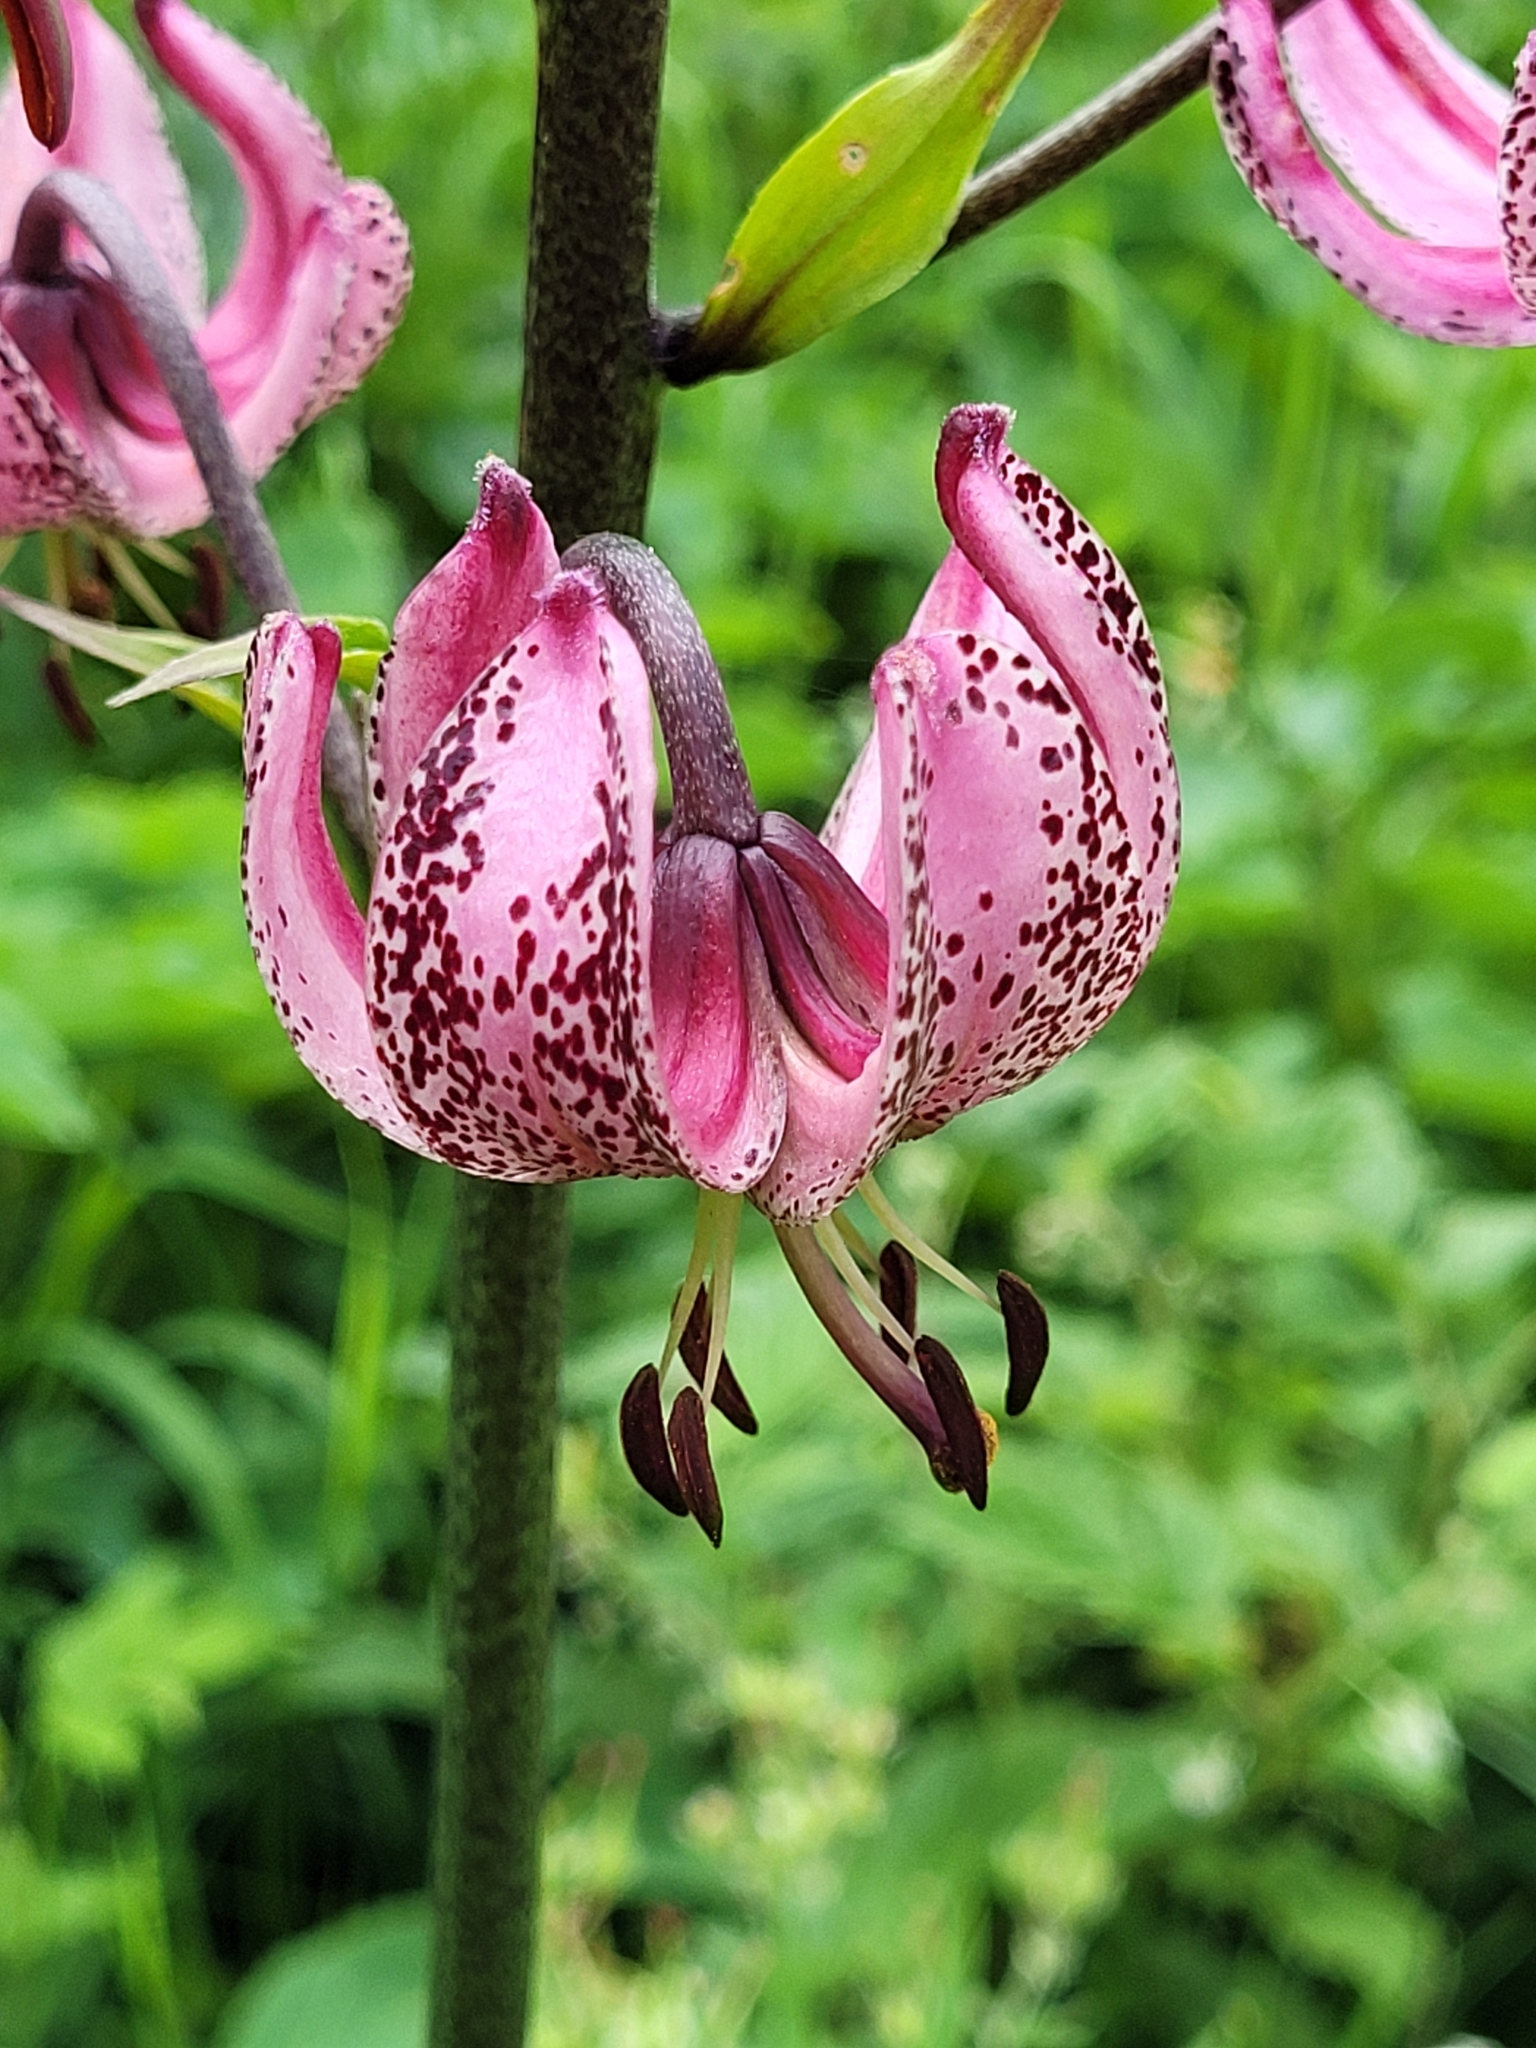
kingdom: Plantae
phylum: Tracheophyta
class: Liliopsida
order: Liliales
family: Liliaceae
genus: Lilium
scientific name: Lilium martagon
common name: Martagon lily
